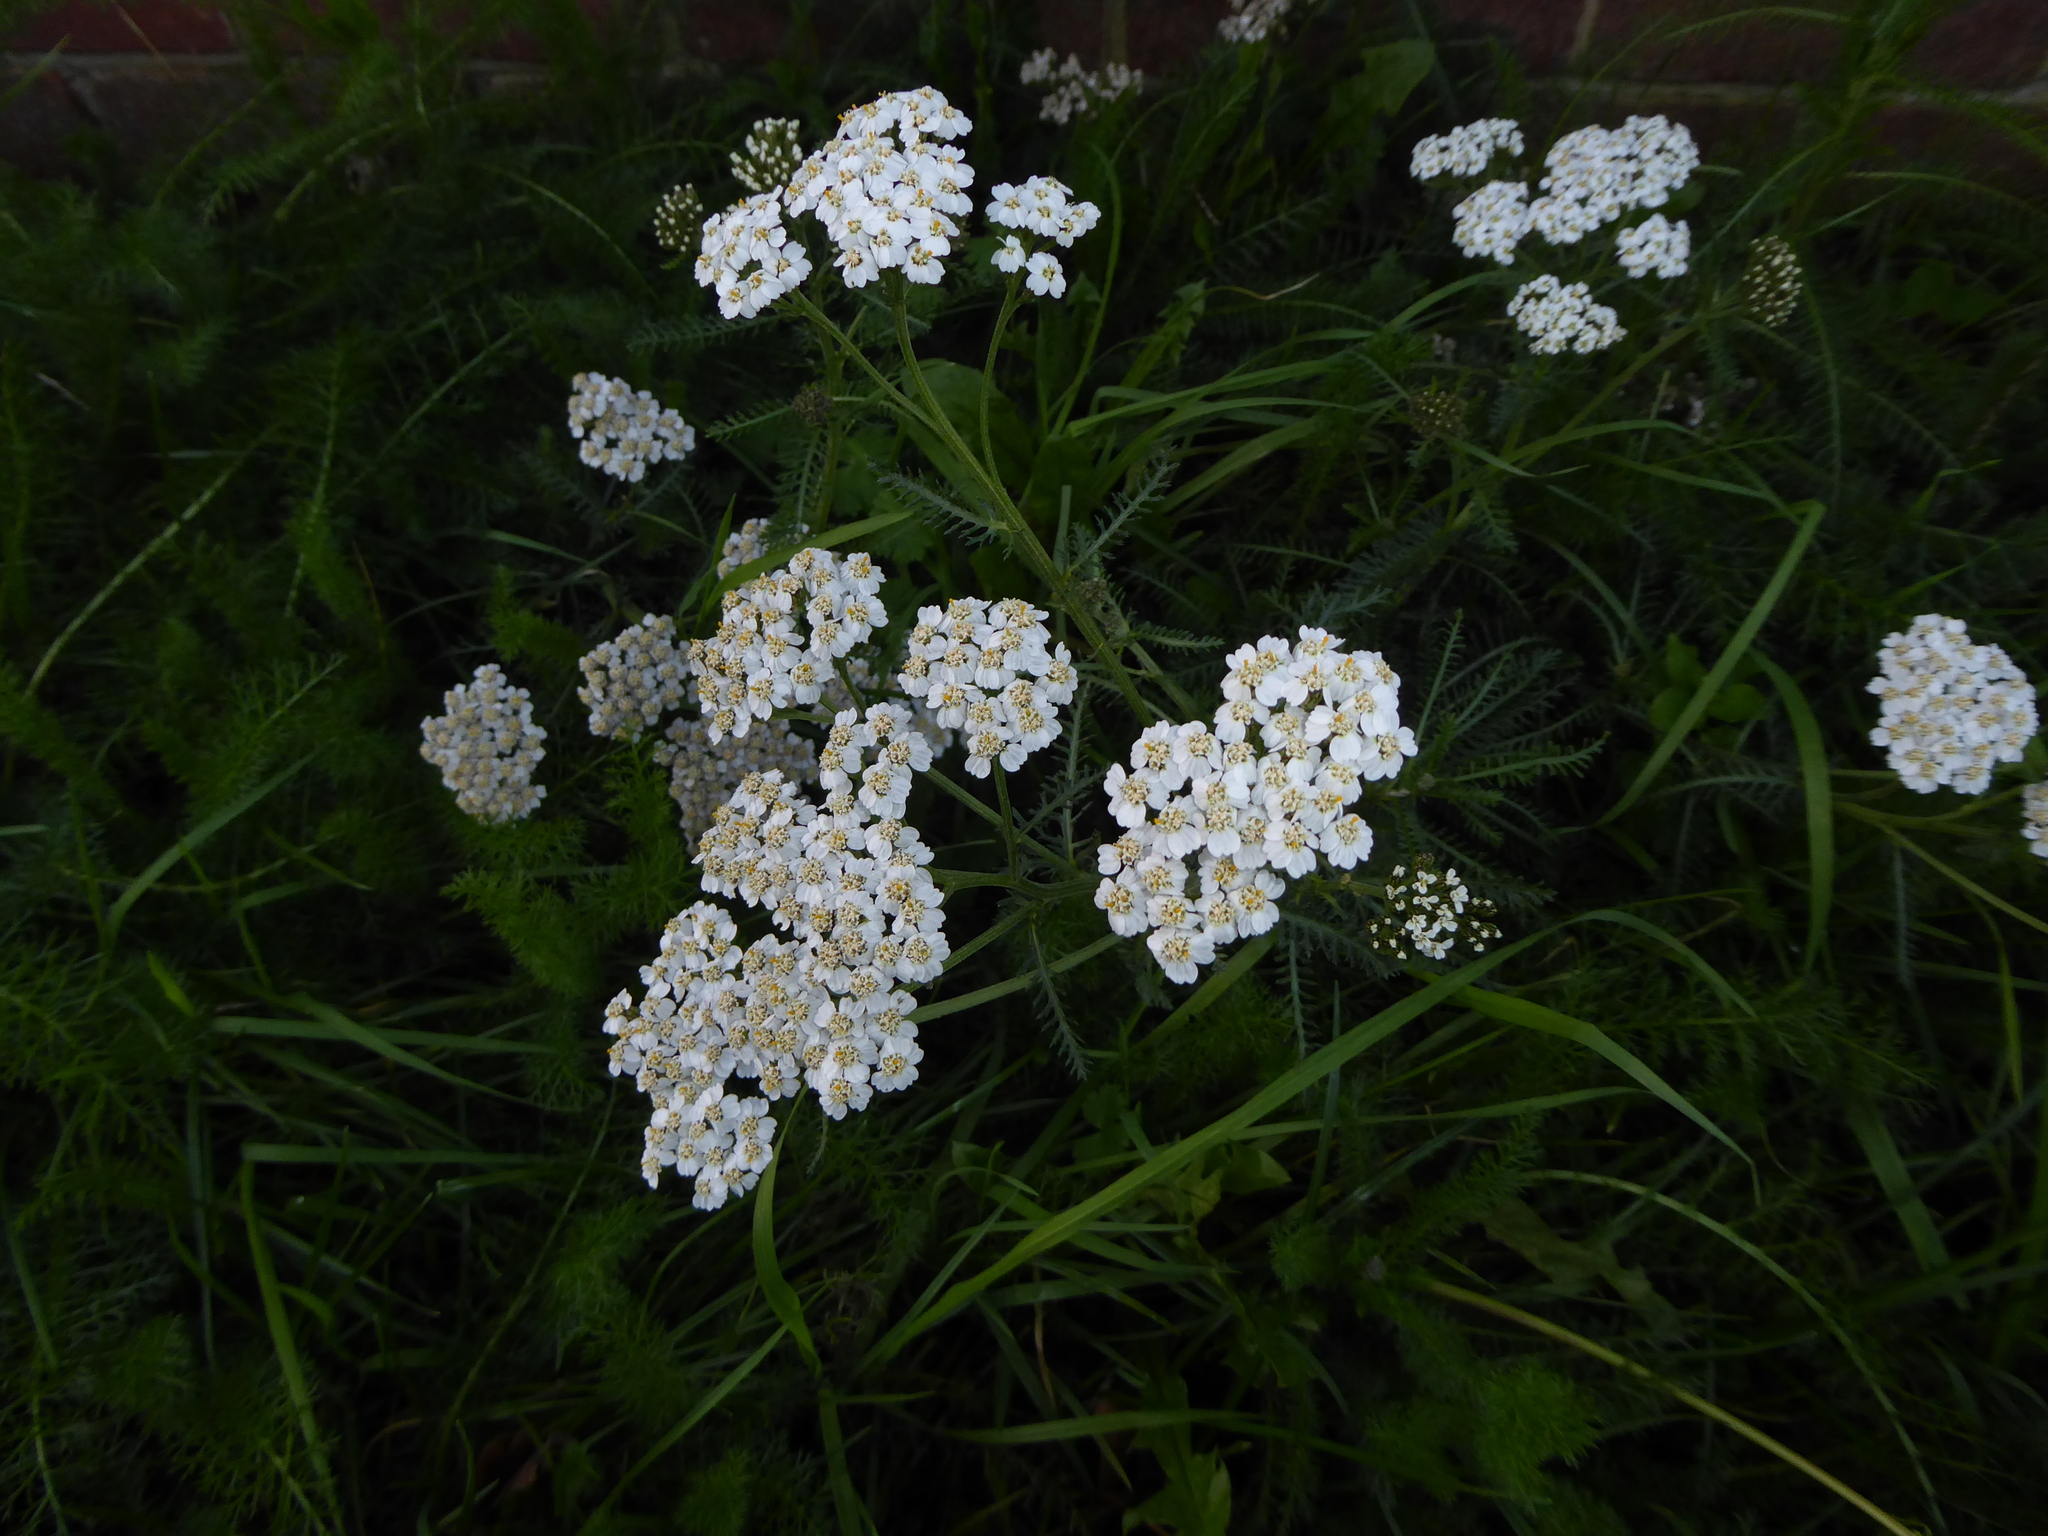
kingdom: Plantae
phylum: Tracheophyta
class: Magnoliopsida
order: Asterales
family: Asteraceae
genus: Achillea
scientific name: Achillea millefolium
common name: Yarrow
